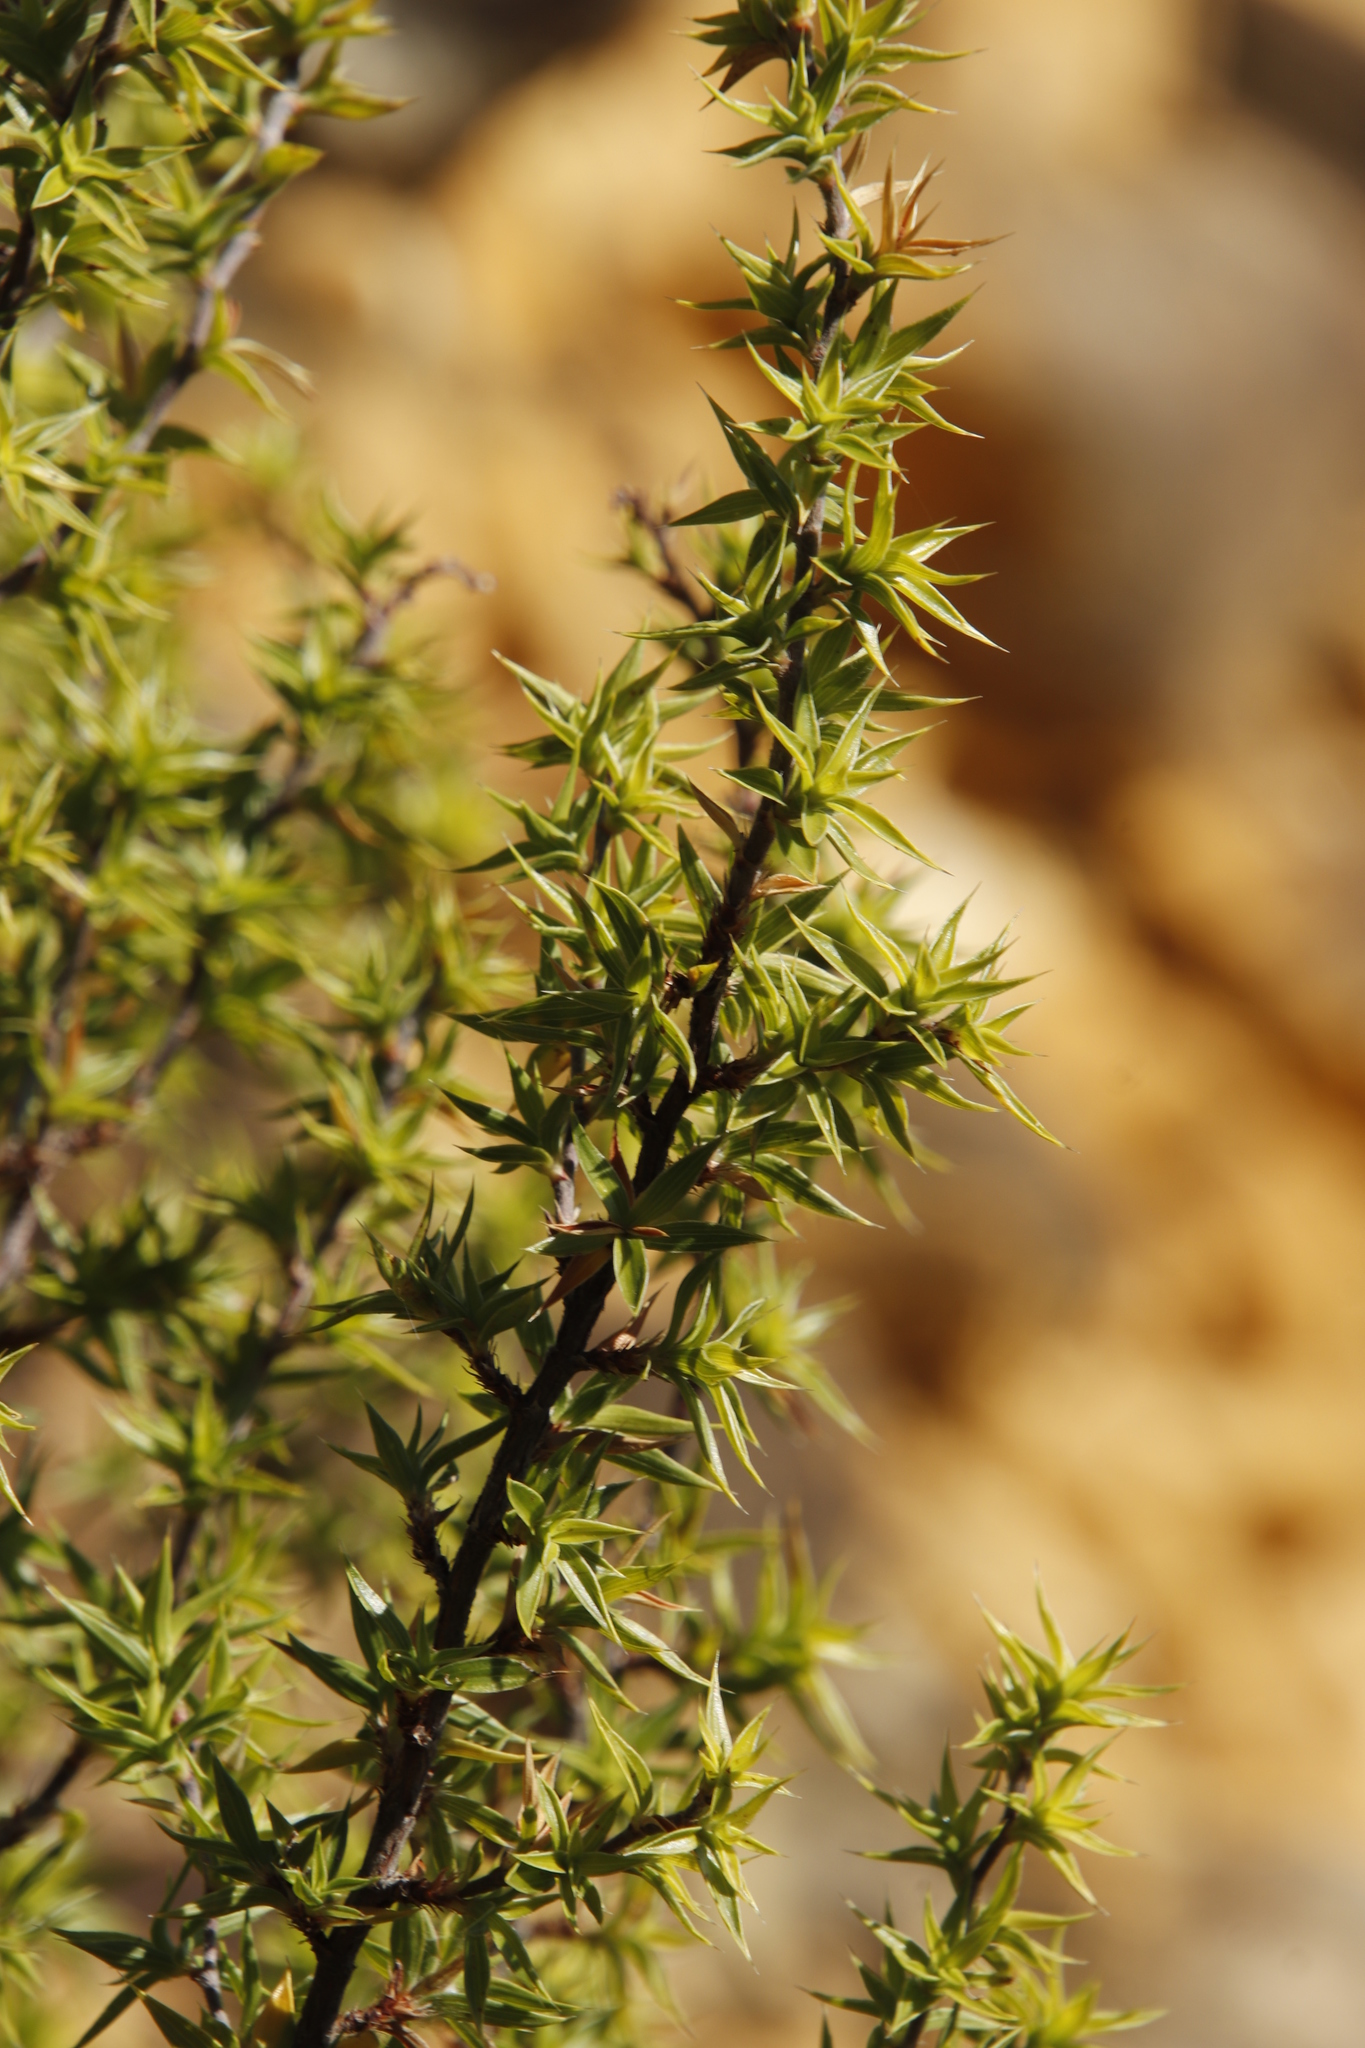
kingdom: Plantae
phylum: Tracheophyta
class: Magnoliopsida
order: Rosales
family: Rosaceae
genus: Cliffortia
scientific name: Cliffortia ruscifolia
